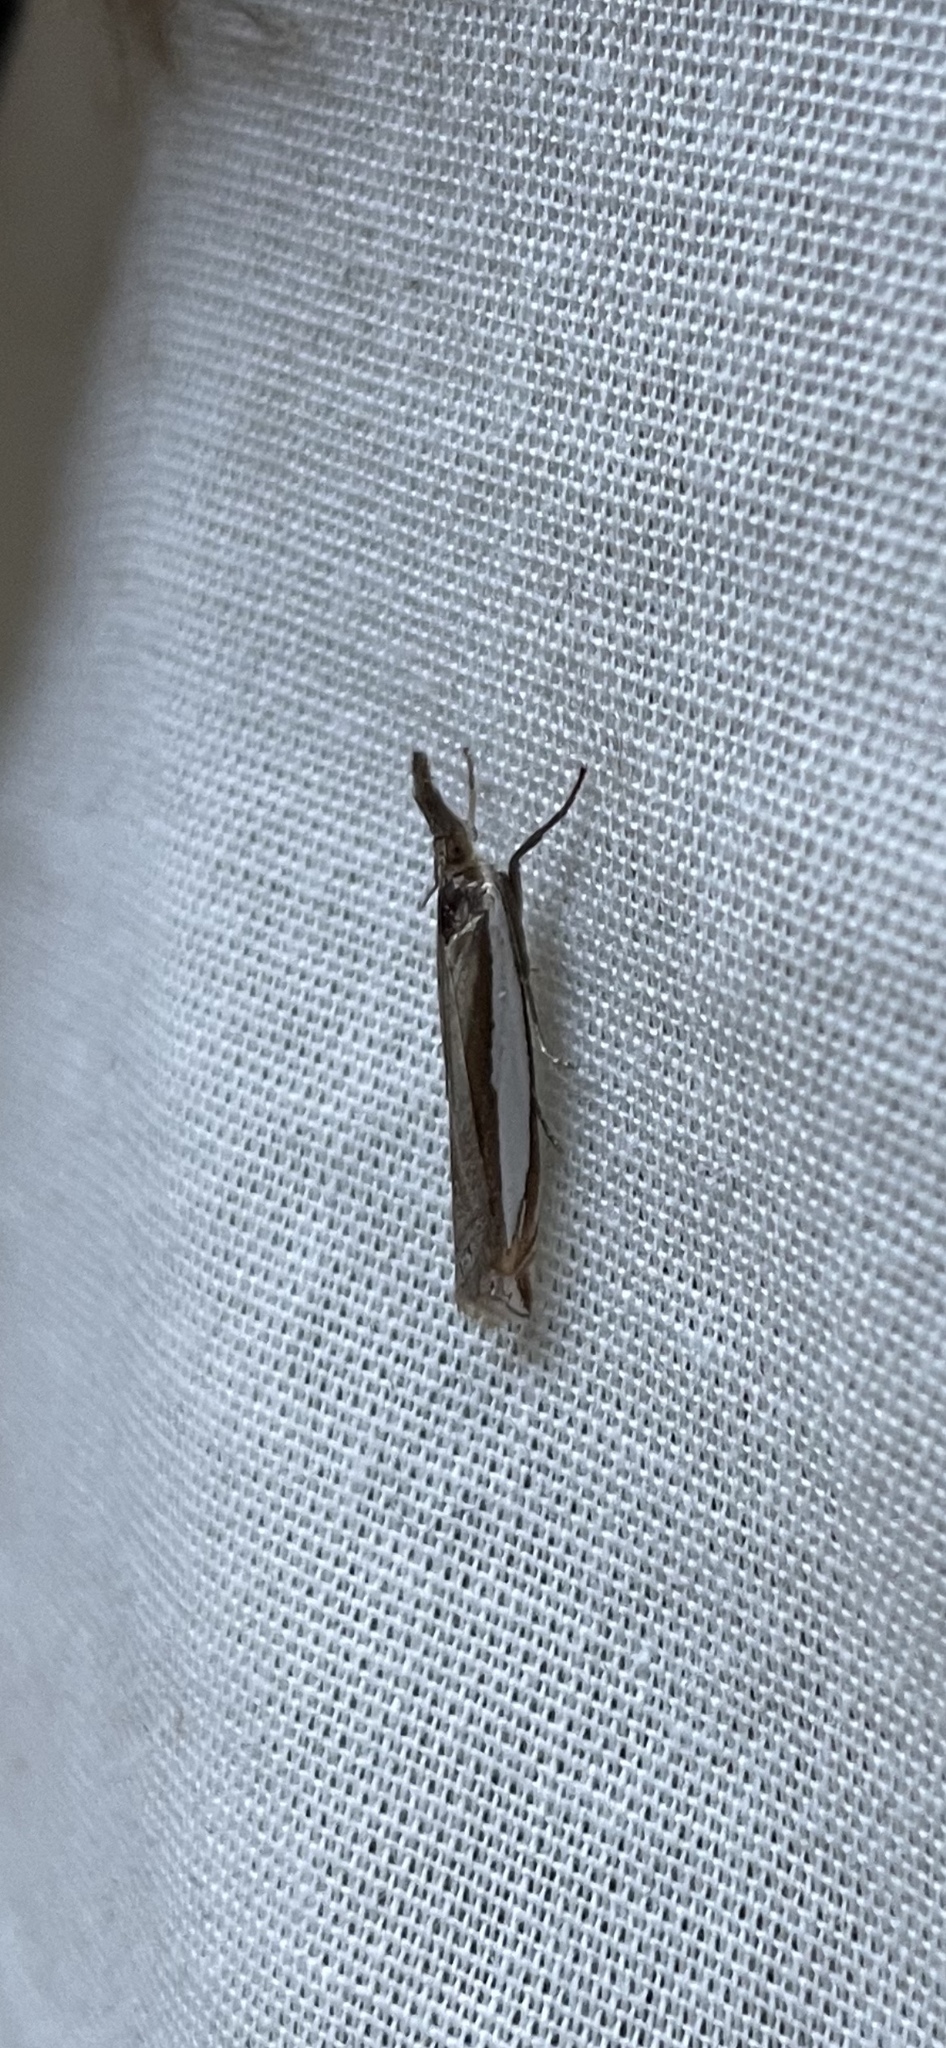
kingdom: Animalia
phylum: Arthropoda
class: Insecta
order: Lepidoptera
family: Crambidae
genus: Crambus
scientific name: Crambus leachellus
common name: Leach's grass-veneer
